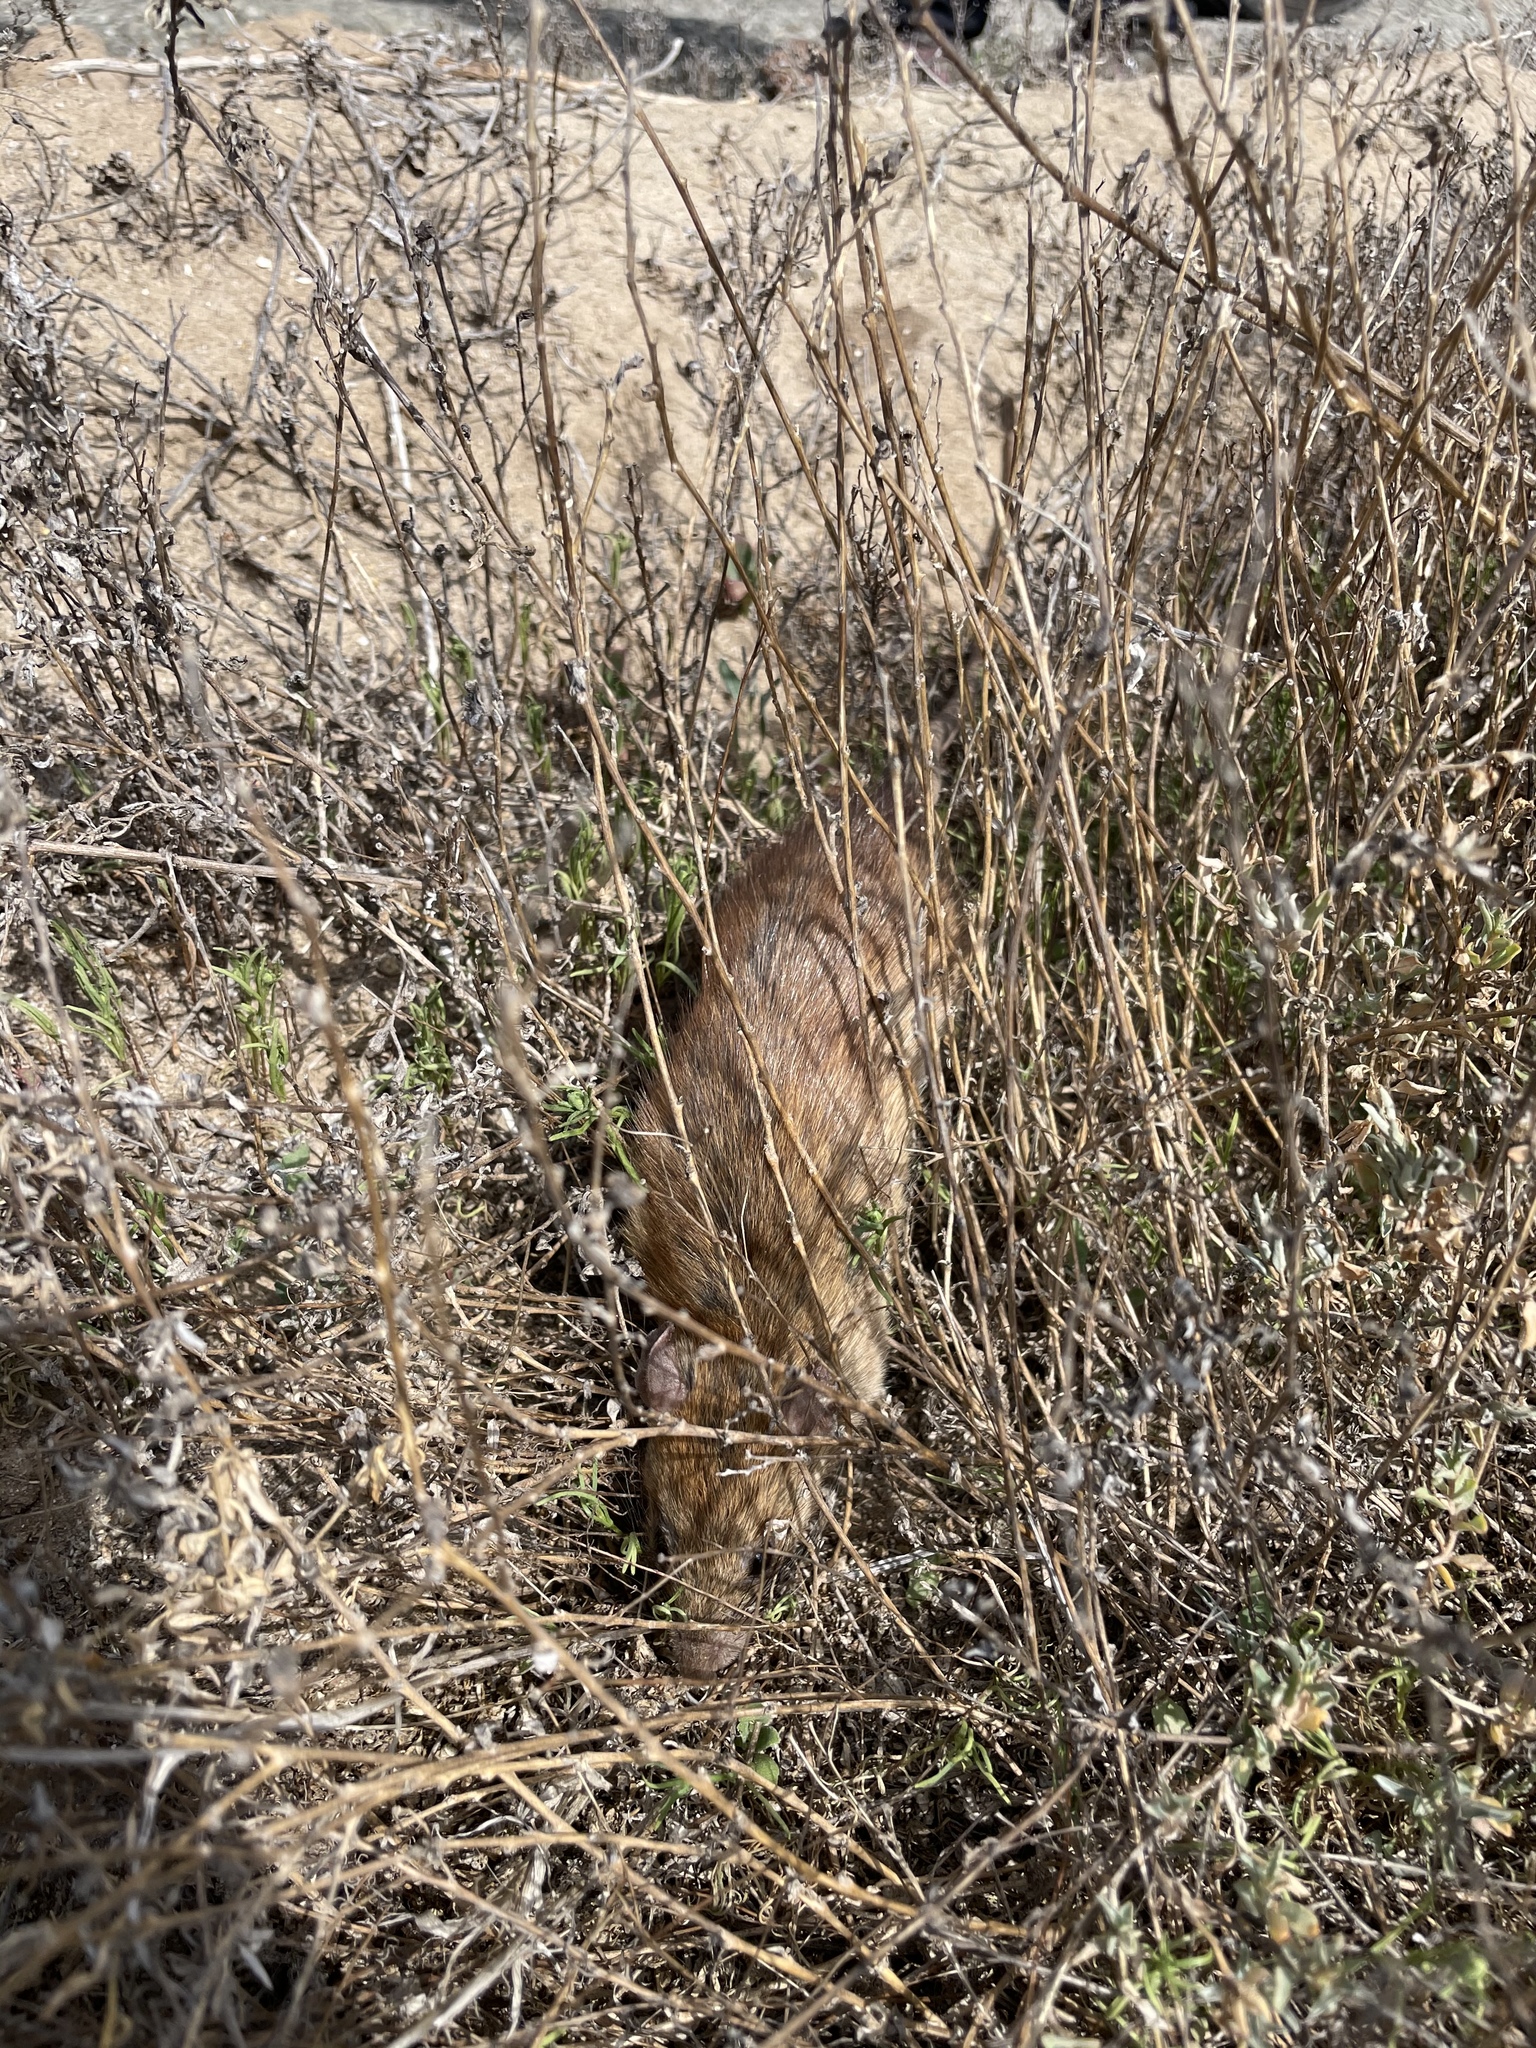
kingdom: Animalia
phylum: Chordata
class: Mammalia
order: Rodentia
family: Muridae
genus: Rattus
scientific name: Rattus rattus
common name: Black rat
